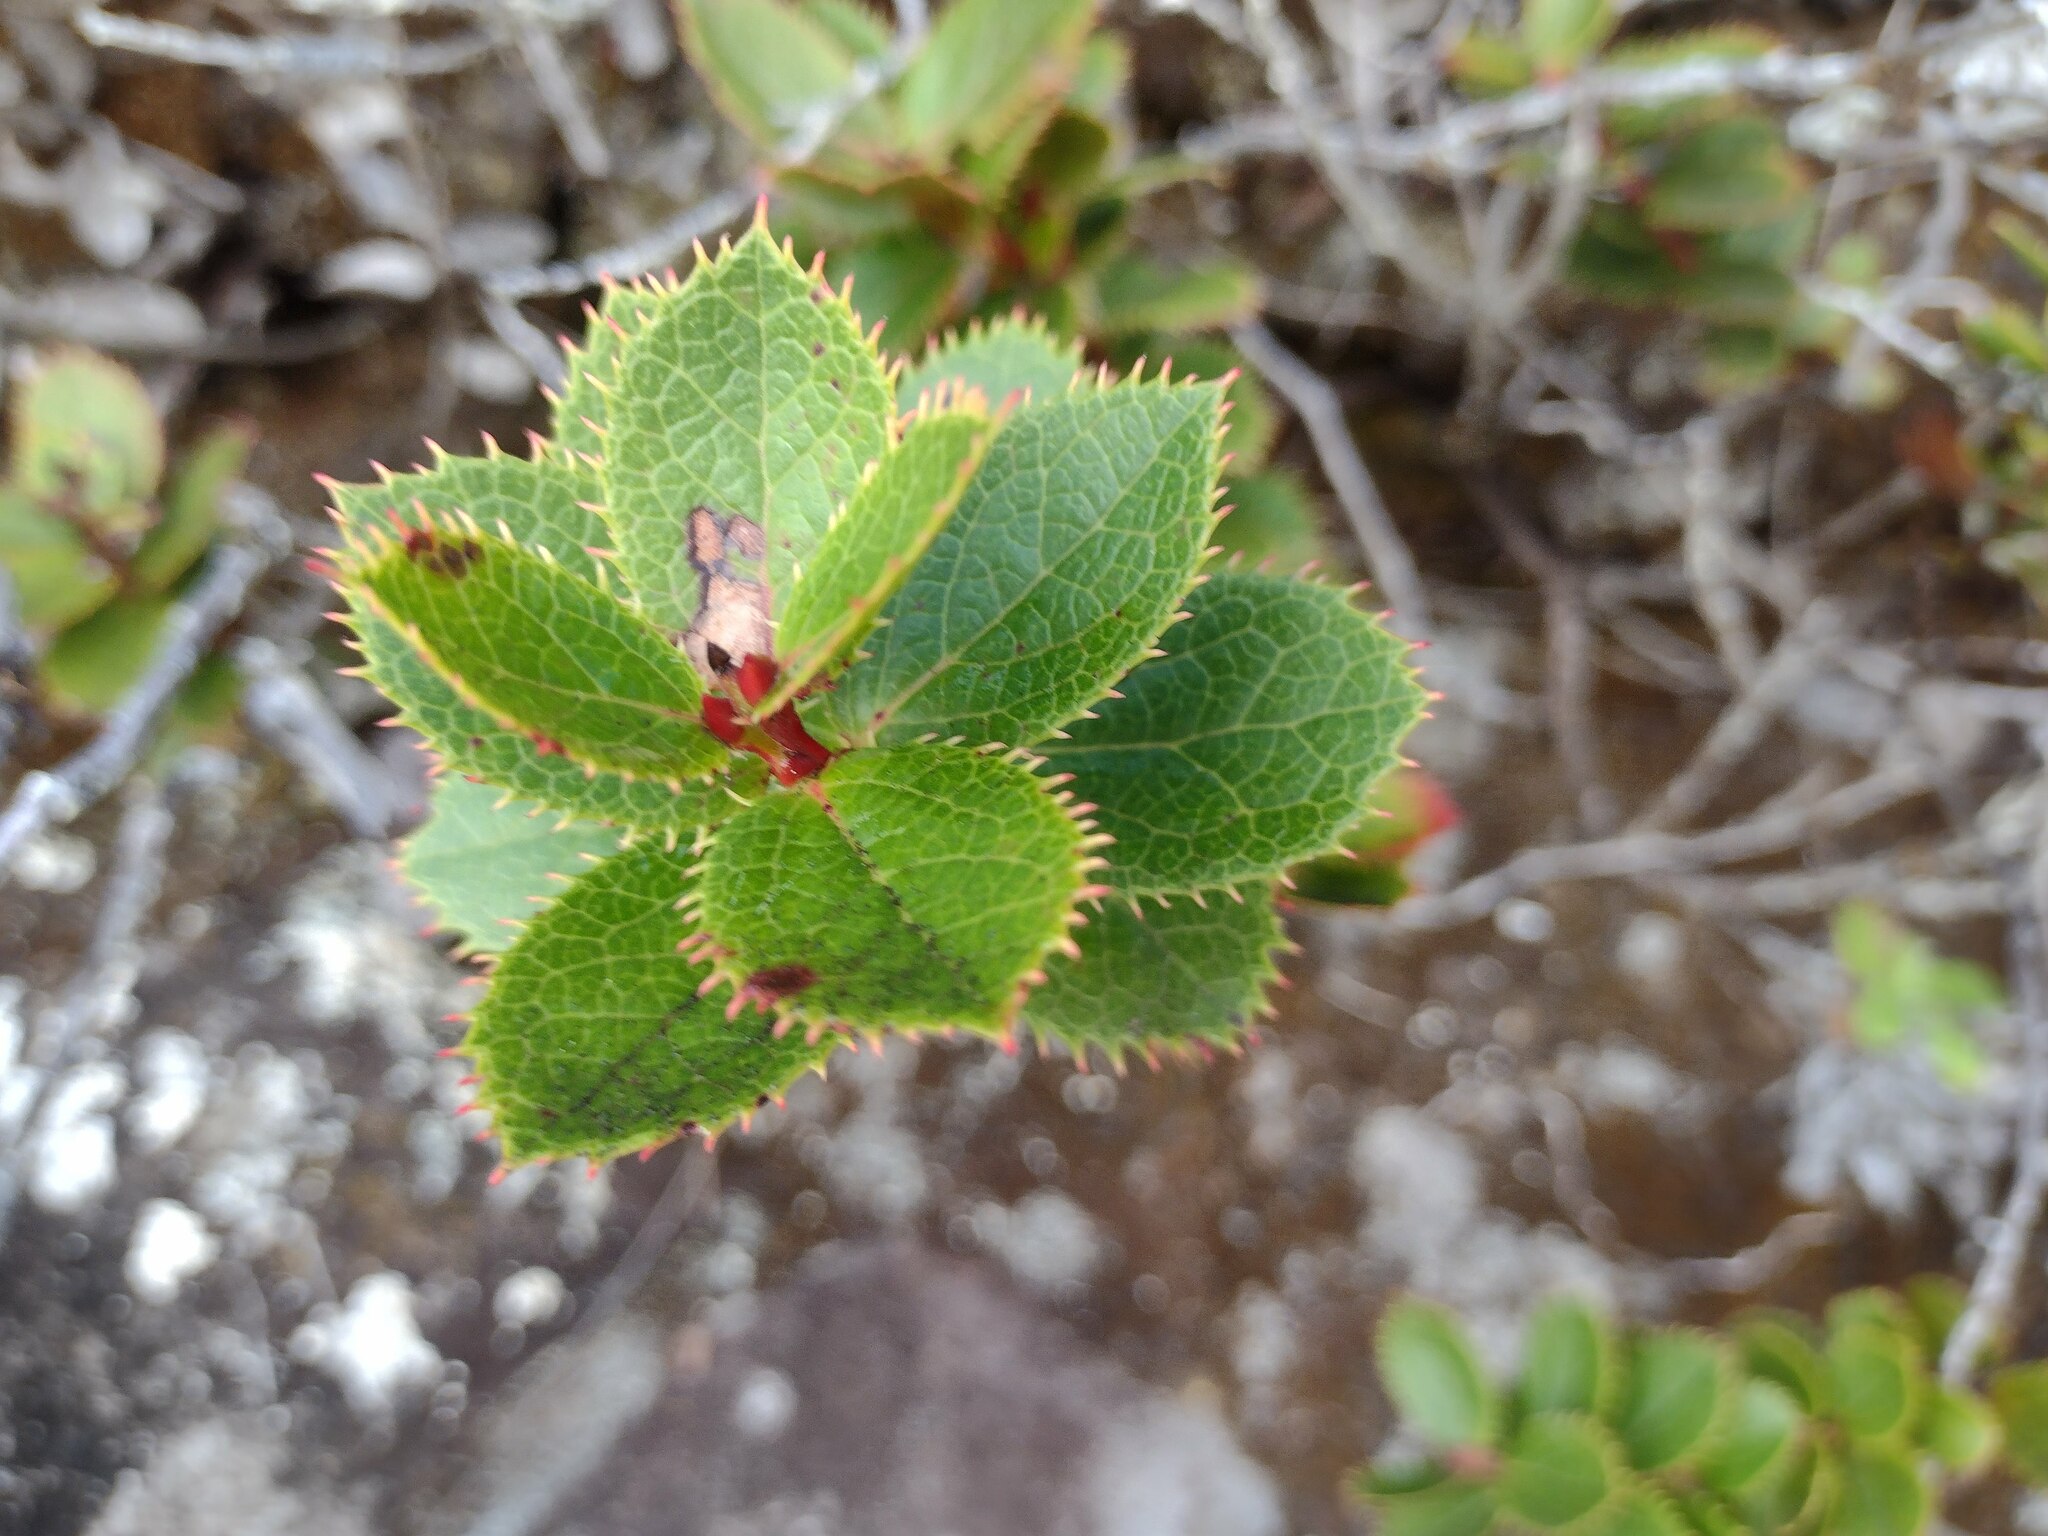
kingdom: Plantae
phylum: Tracheophyta
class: Magnoliopsida
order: Ericales
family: Ericaceae
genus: Vaccinium
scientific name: Vaccinium dentatum
